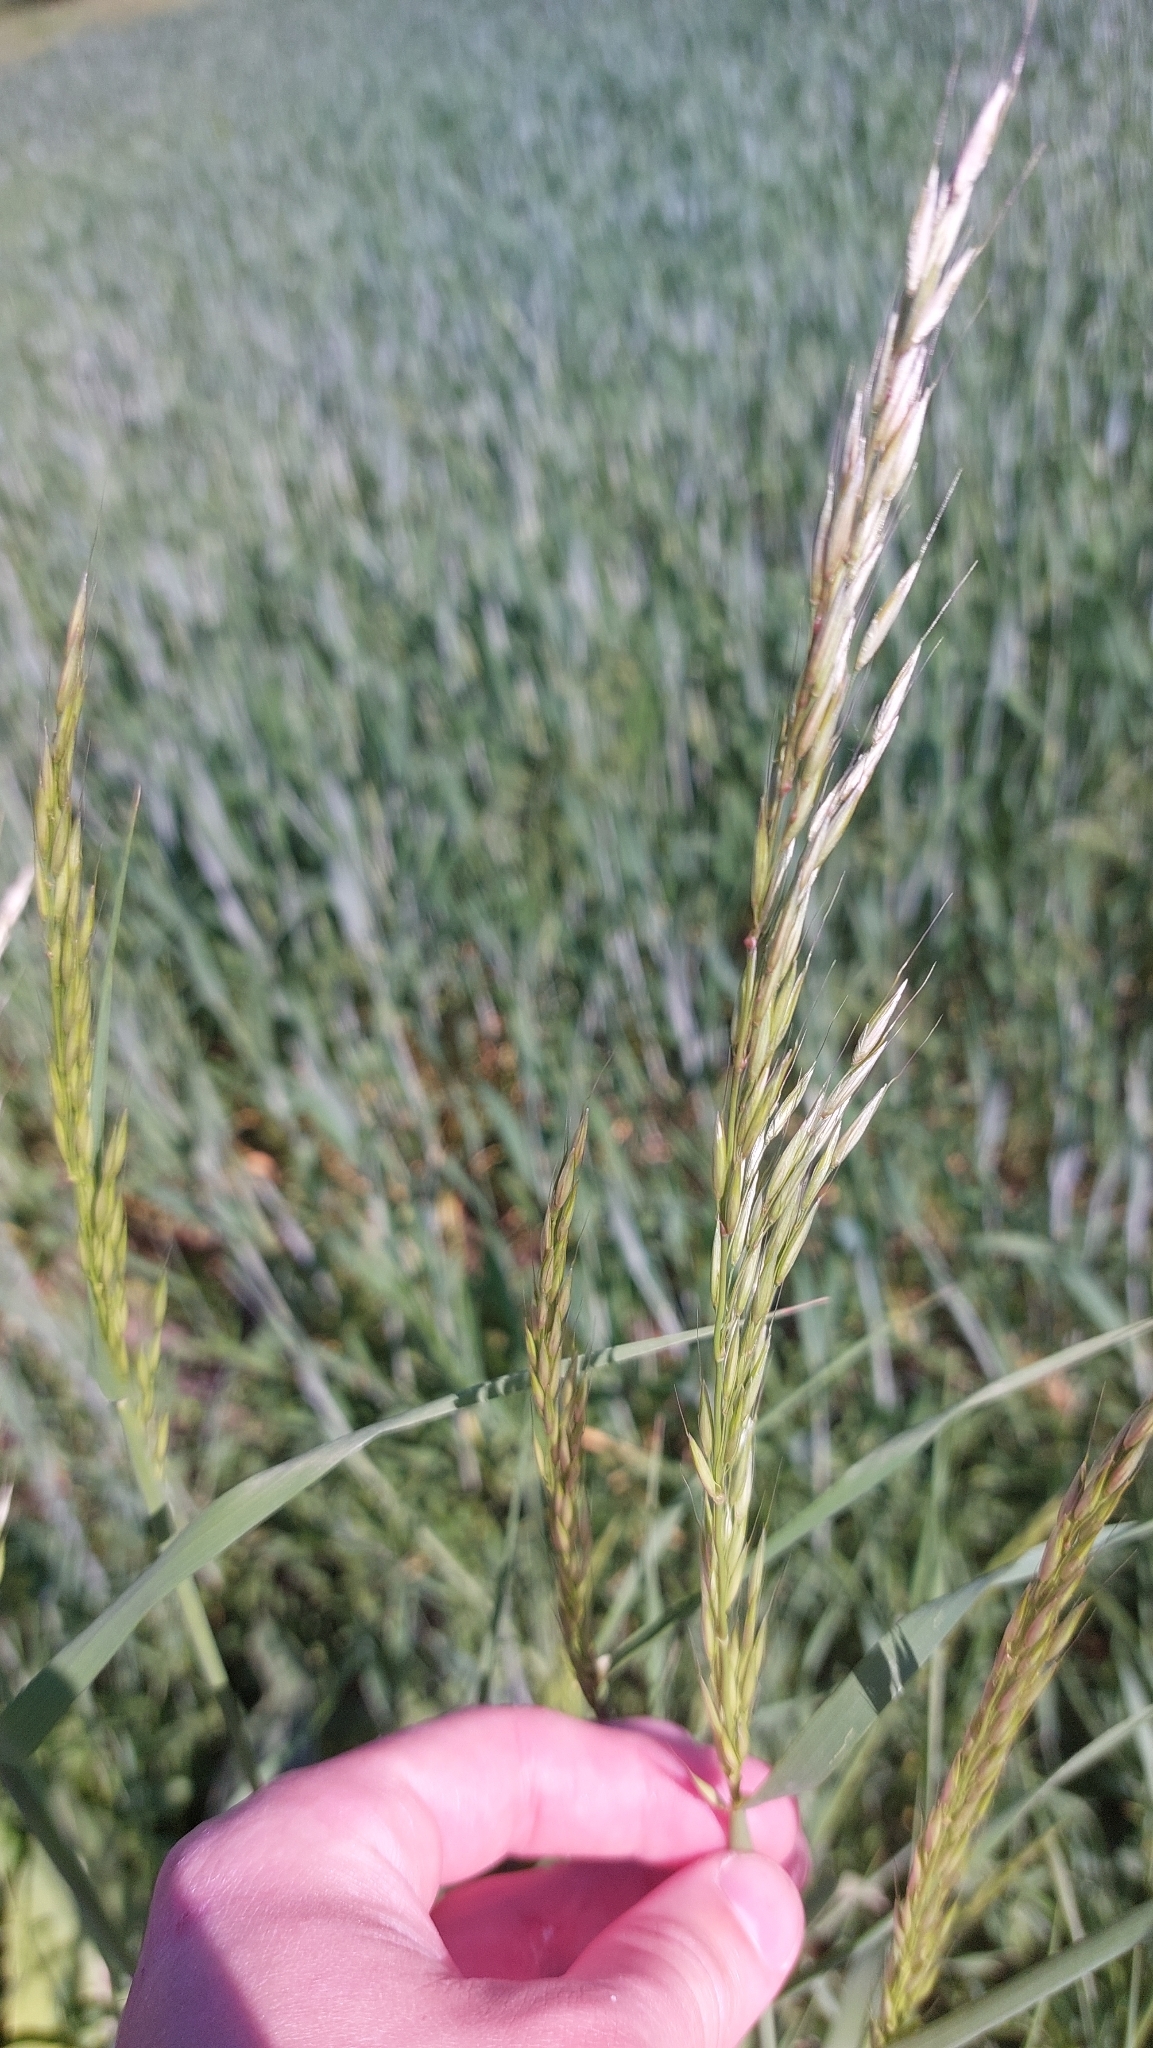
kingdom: Plantae
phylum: Tracheophyta
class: Liliopsida
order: Poales
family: Poaceae
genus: Arrhenatherum
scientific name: Arrhenatherum elatius
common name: Tall oatgrass
